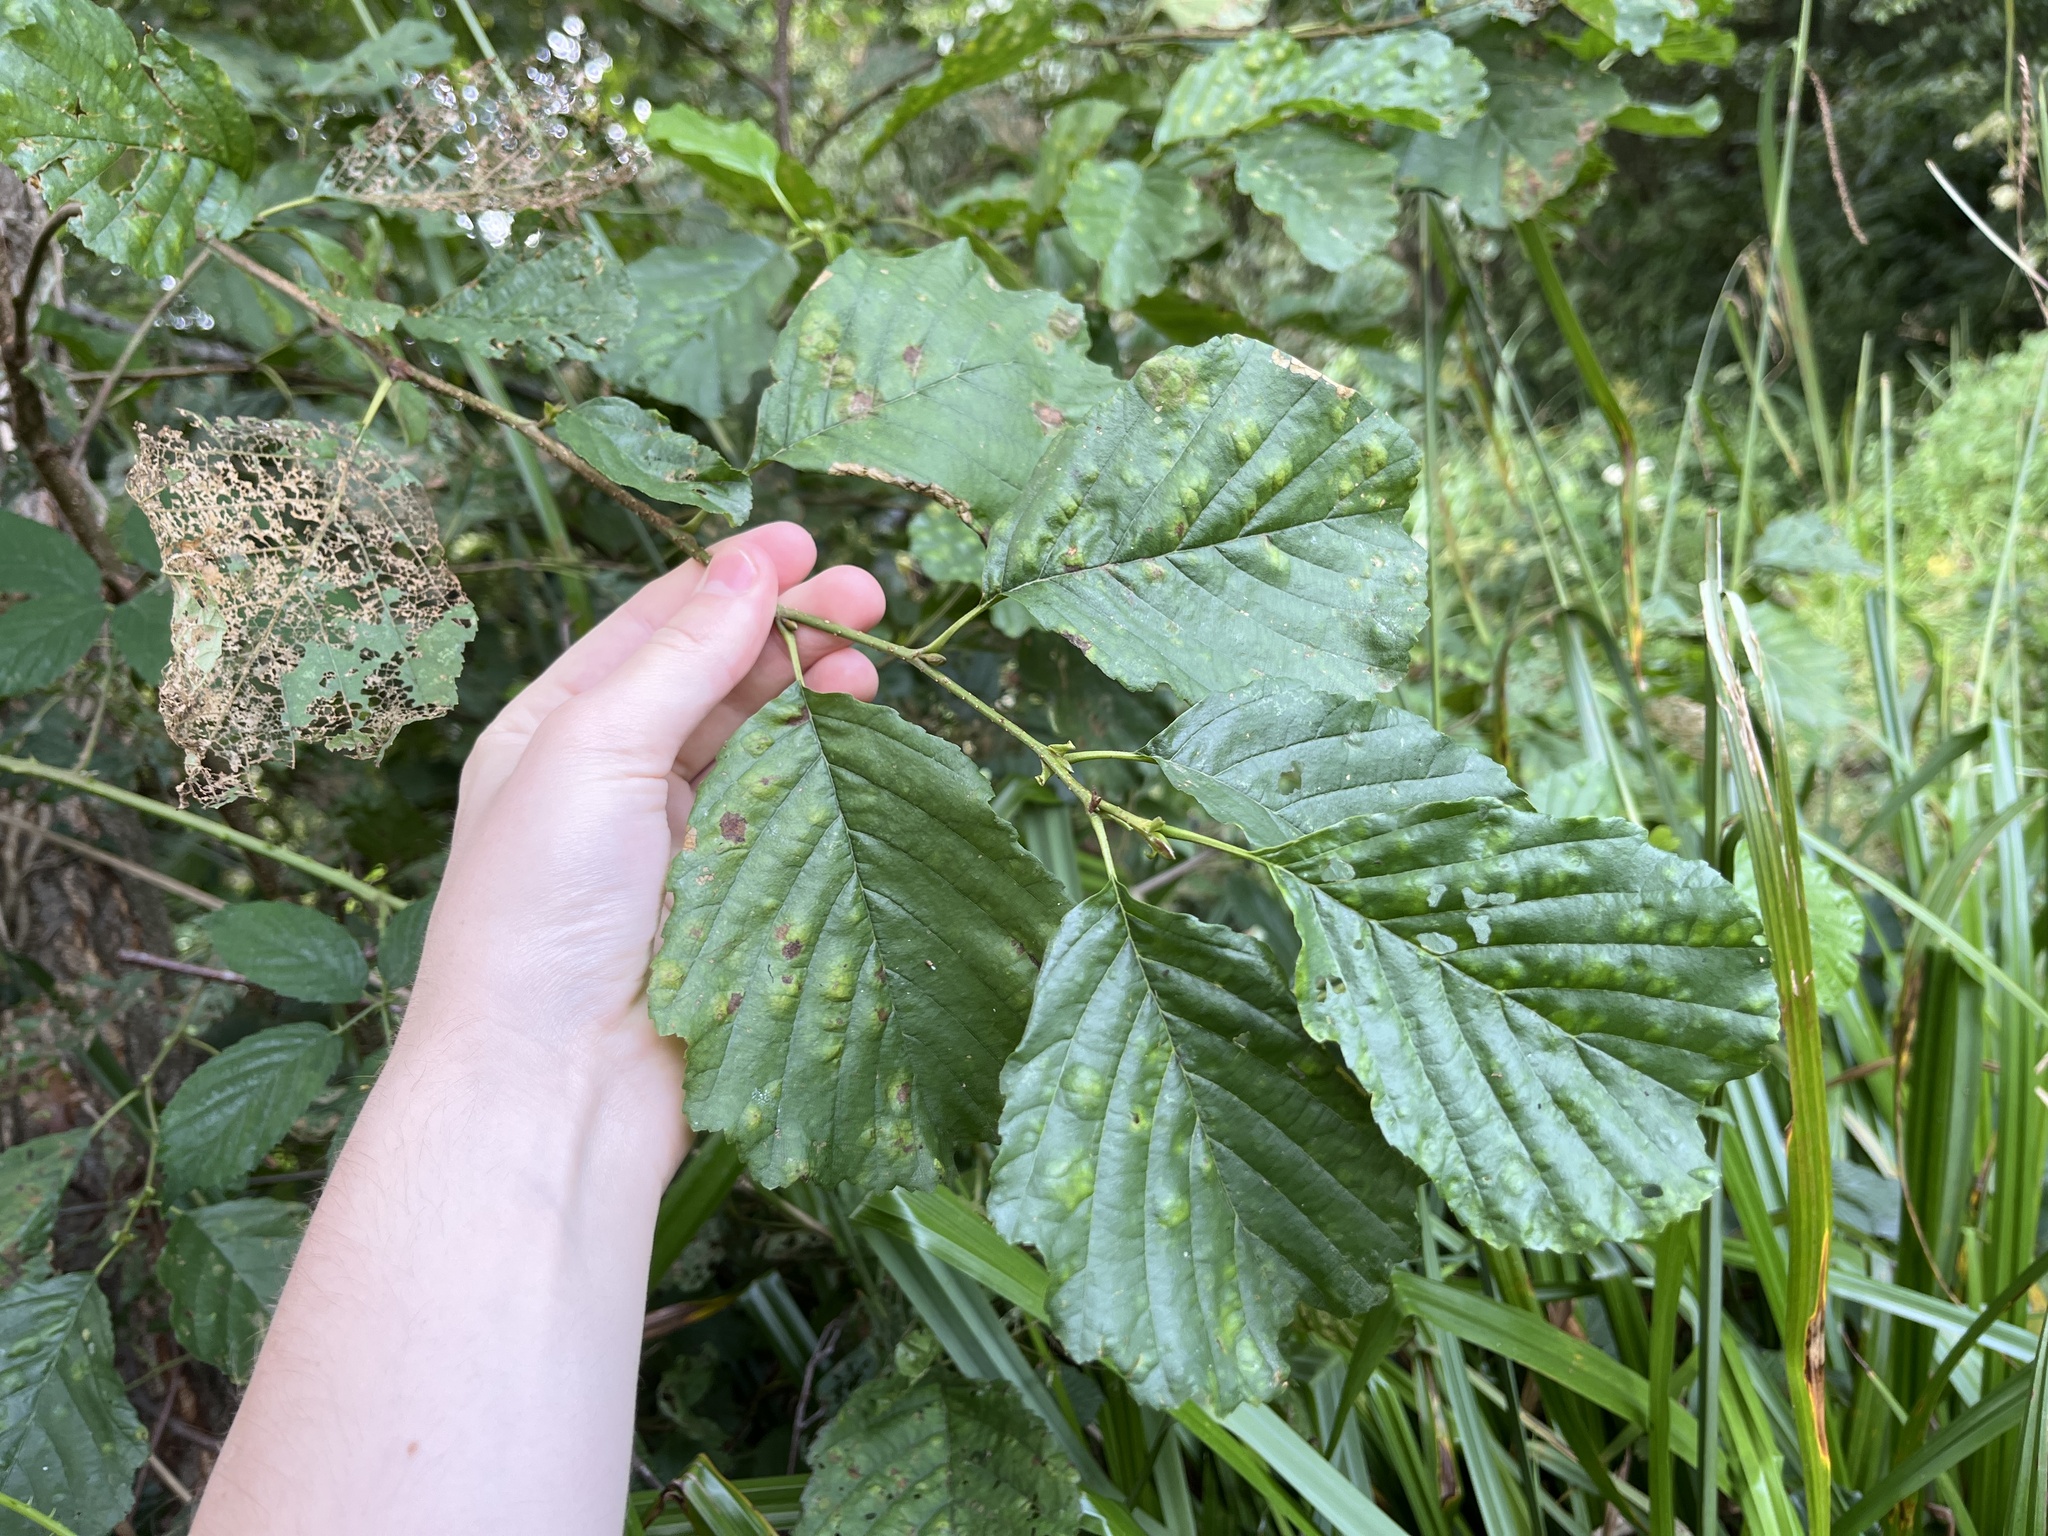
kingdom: Plantae
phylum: Tracheophyta
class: Magnoliopsida
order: Fagales
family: Betulaceae
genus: Alnus
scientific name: Alnus glutinosa
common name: Black alder
